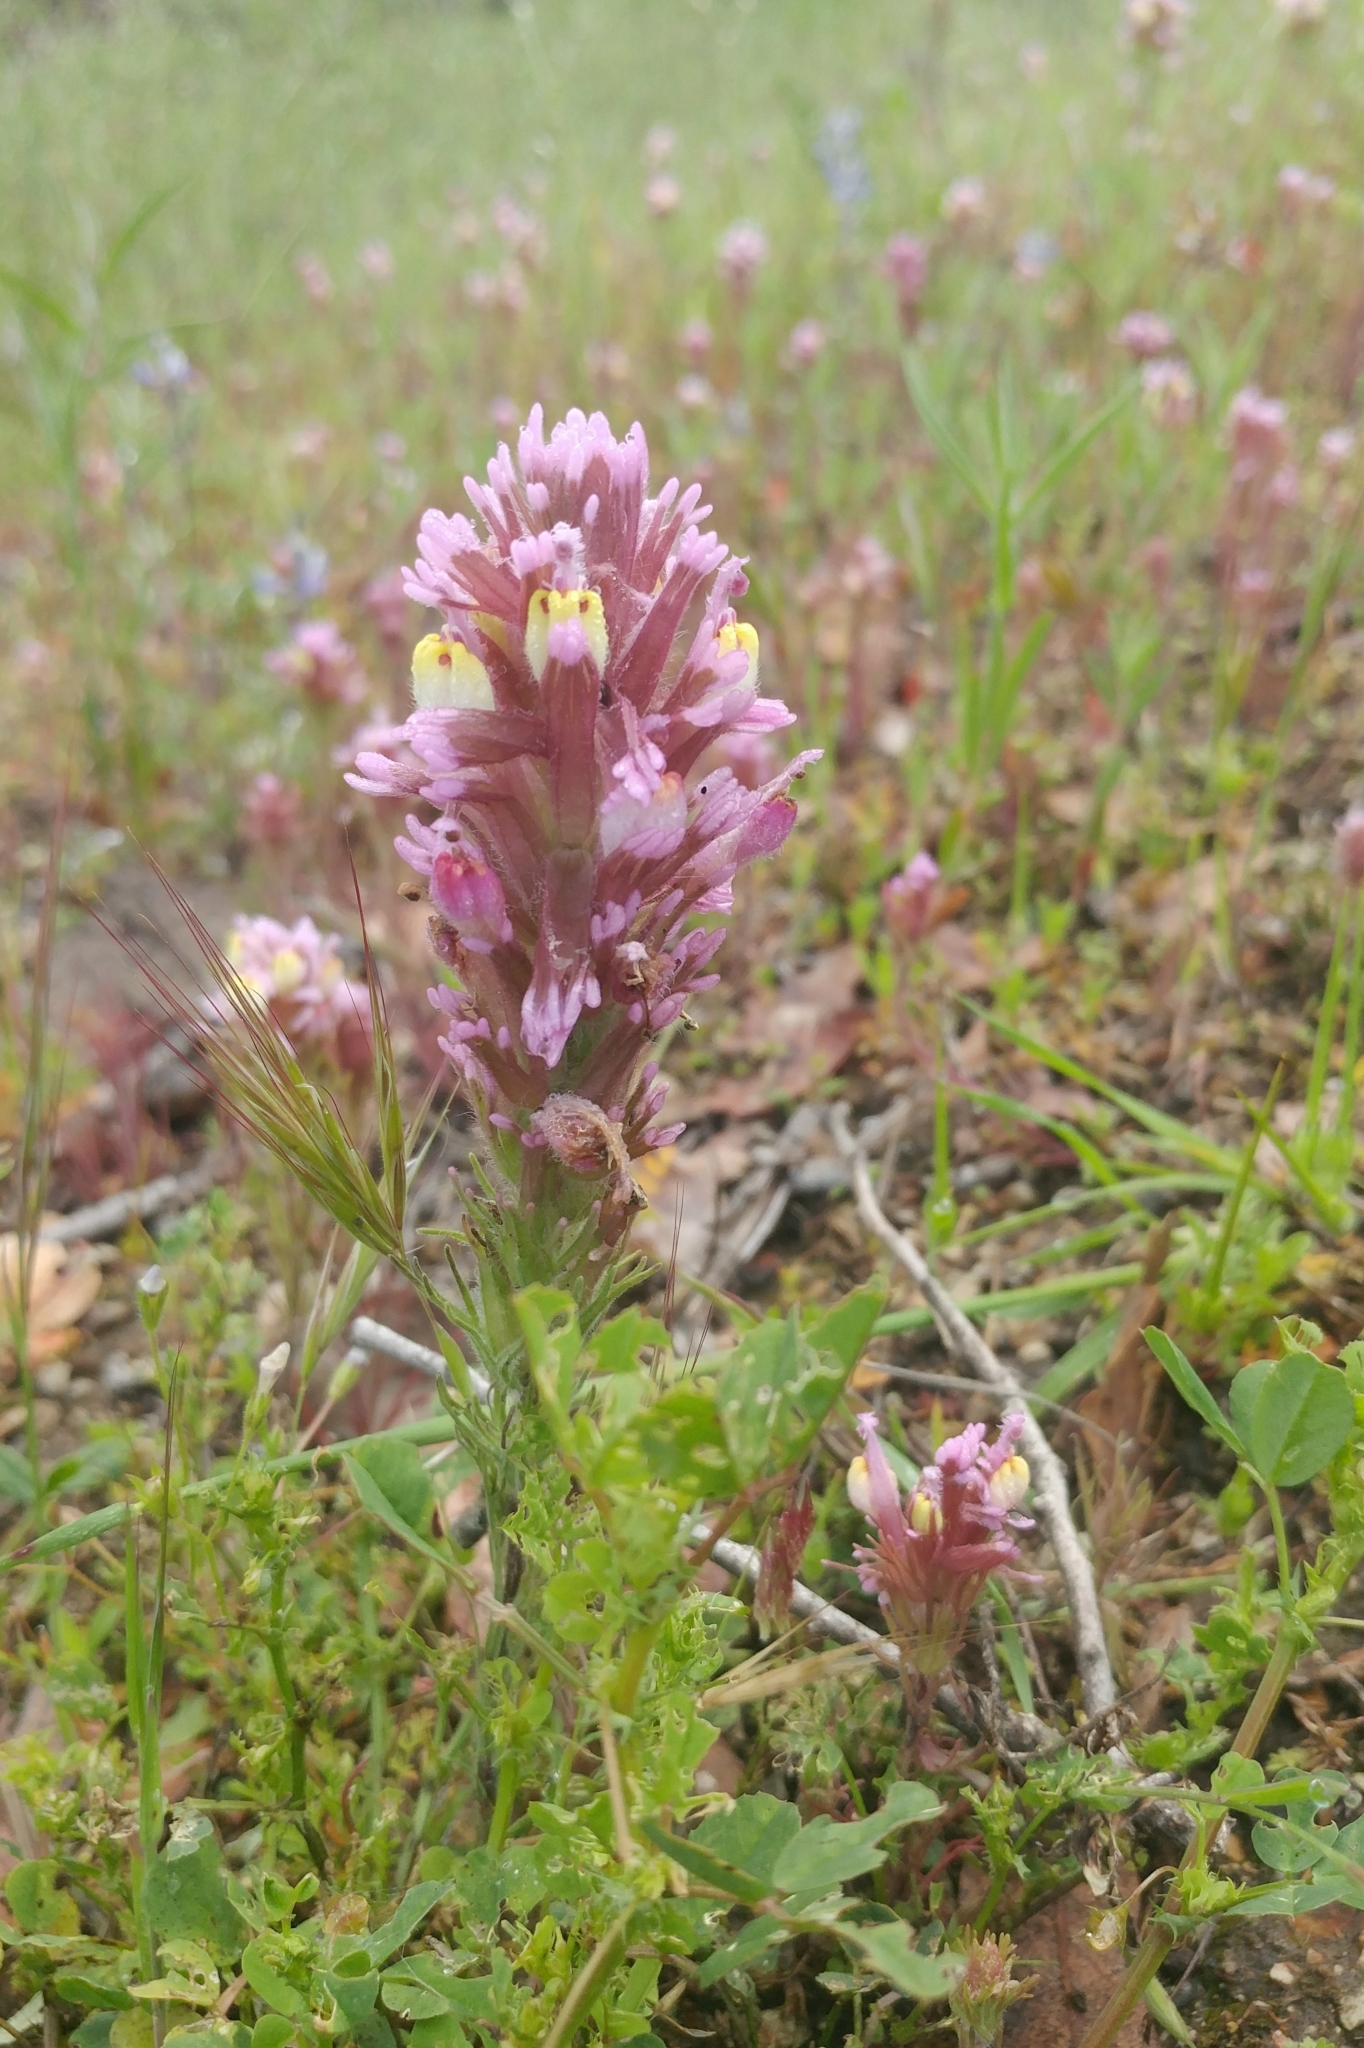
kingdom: Plantae
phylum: Tracheophyta
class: Magnoliopsida
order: Lamiales
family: Orobanchaceae
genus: Castilleja
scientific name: Castilleja exserta
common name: Purple owl-clover
